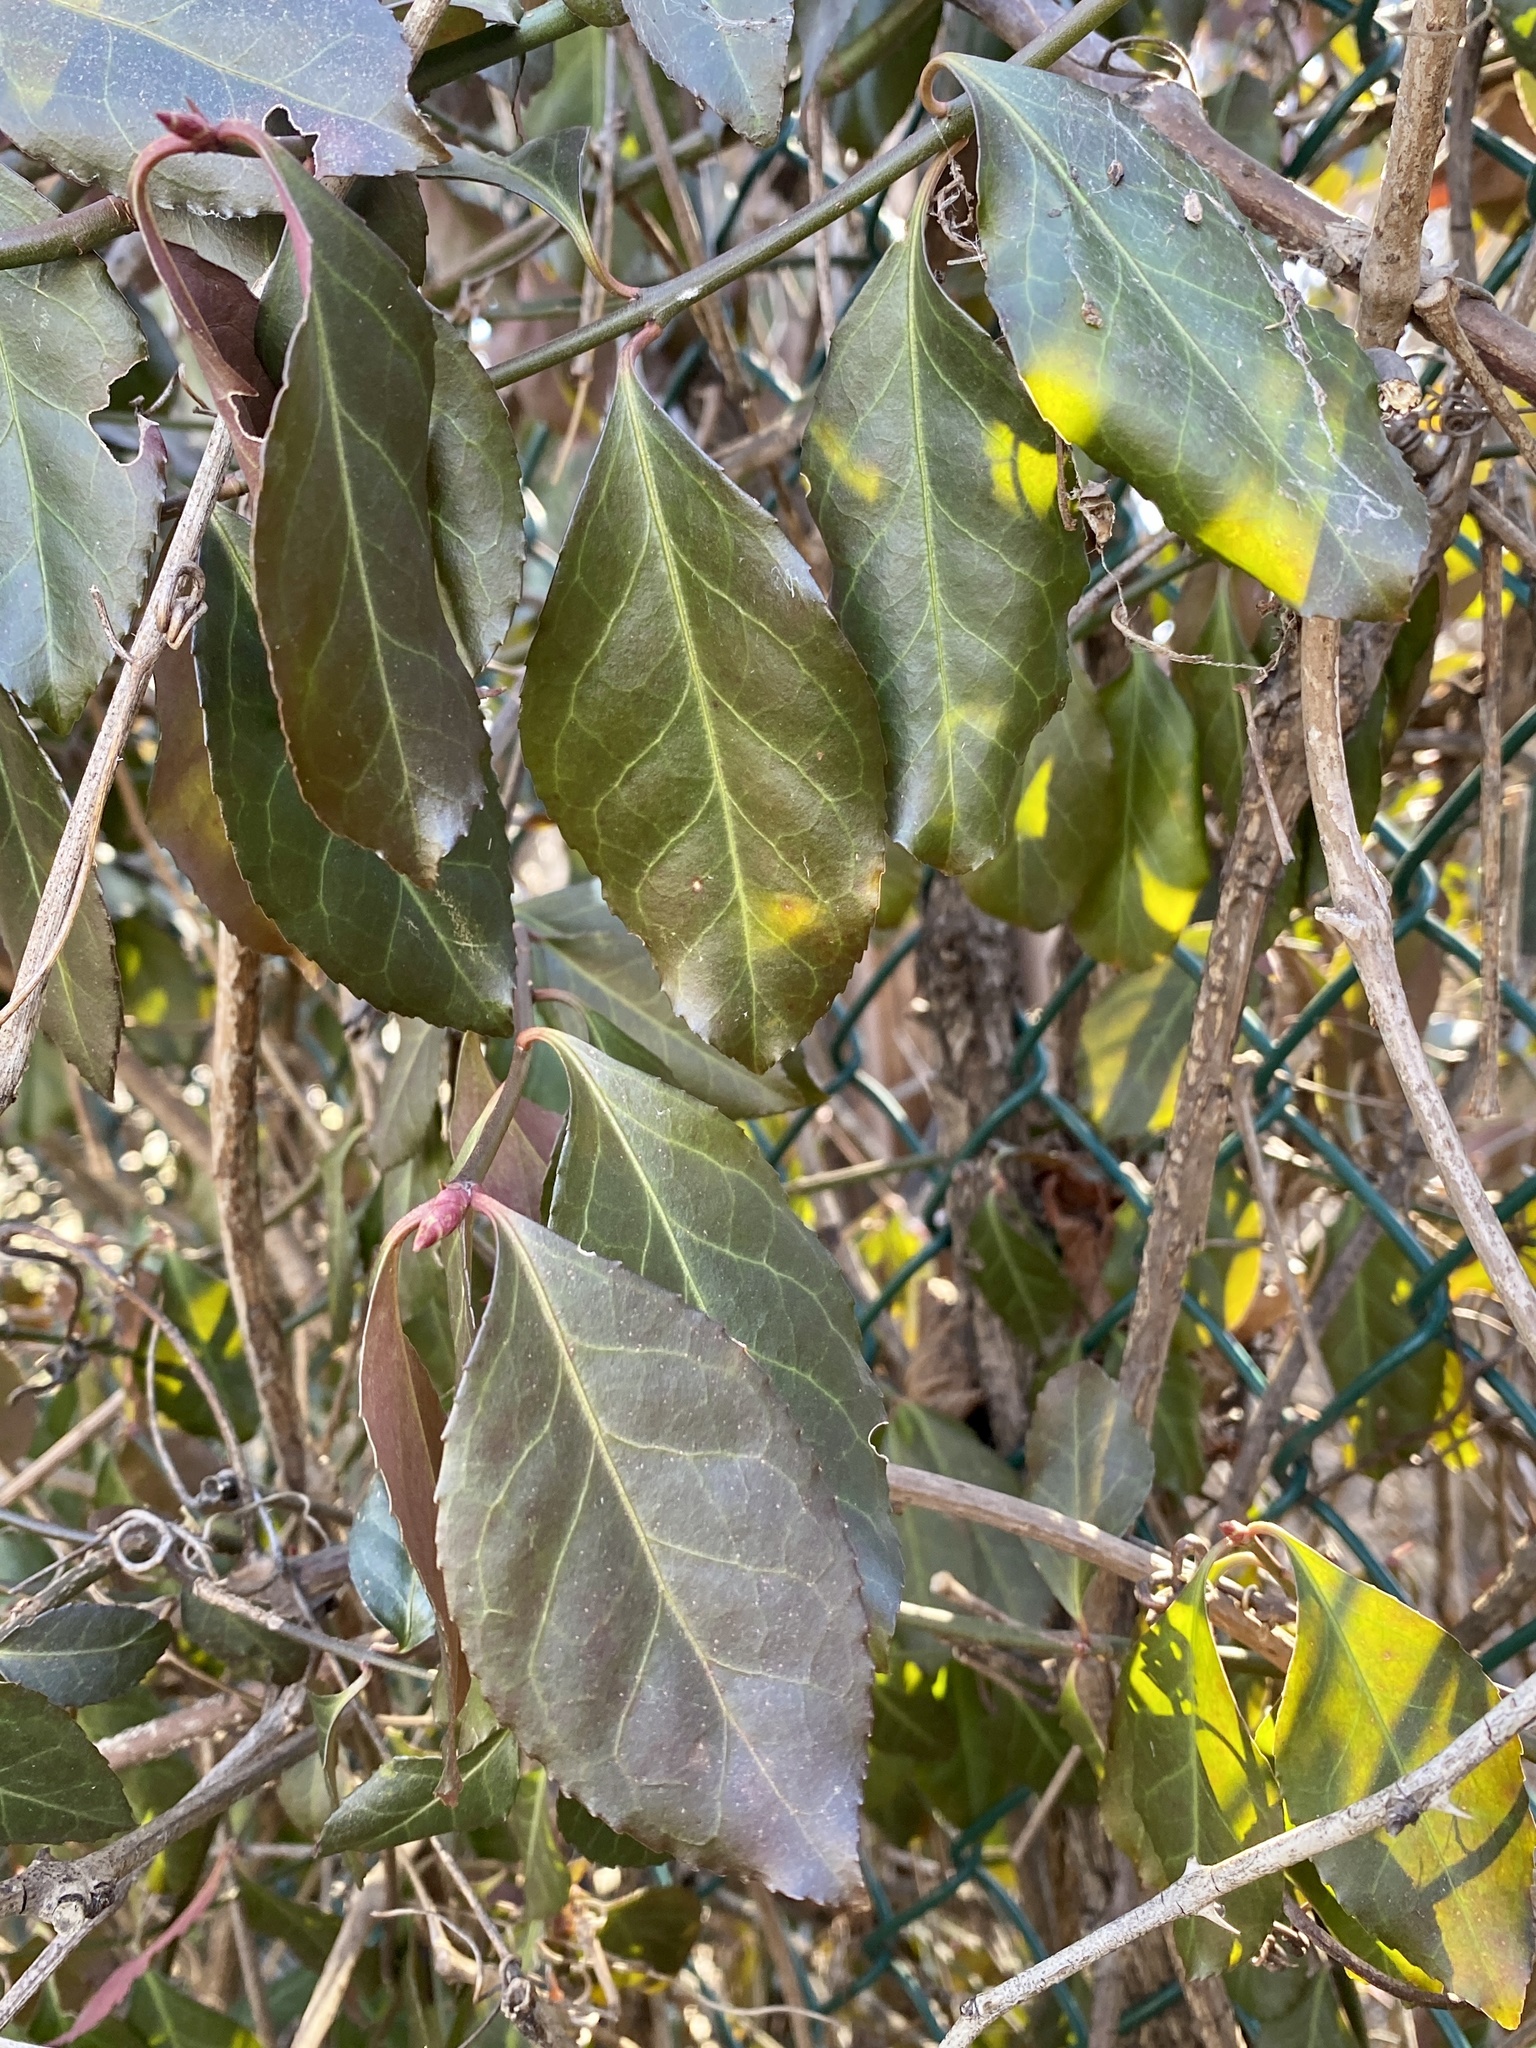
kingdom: Plantae
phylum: Tracheophyta
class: Magnoliopsida
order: Celastrales
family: Celastraceae
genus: Euonymus
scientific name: Euonymus fortunei
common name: Climbing euonymus
